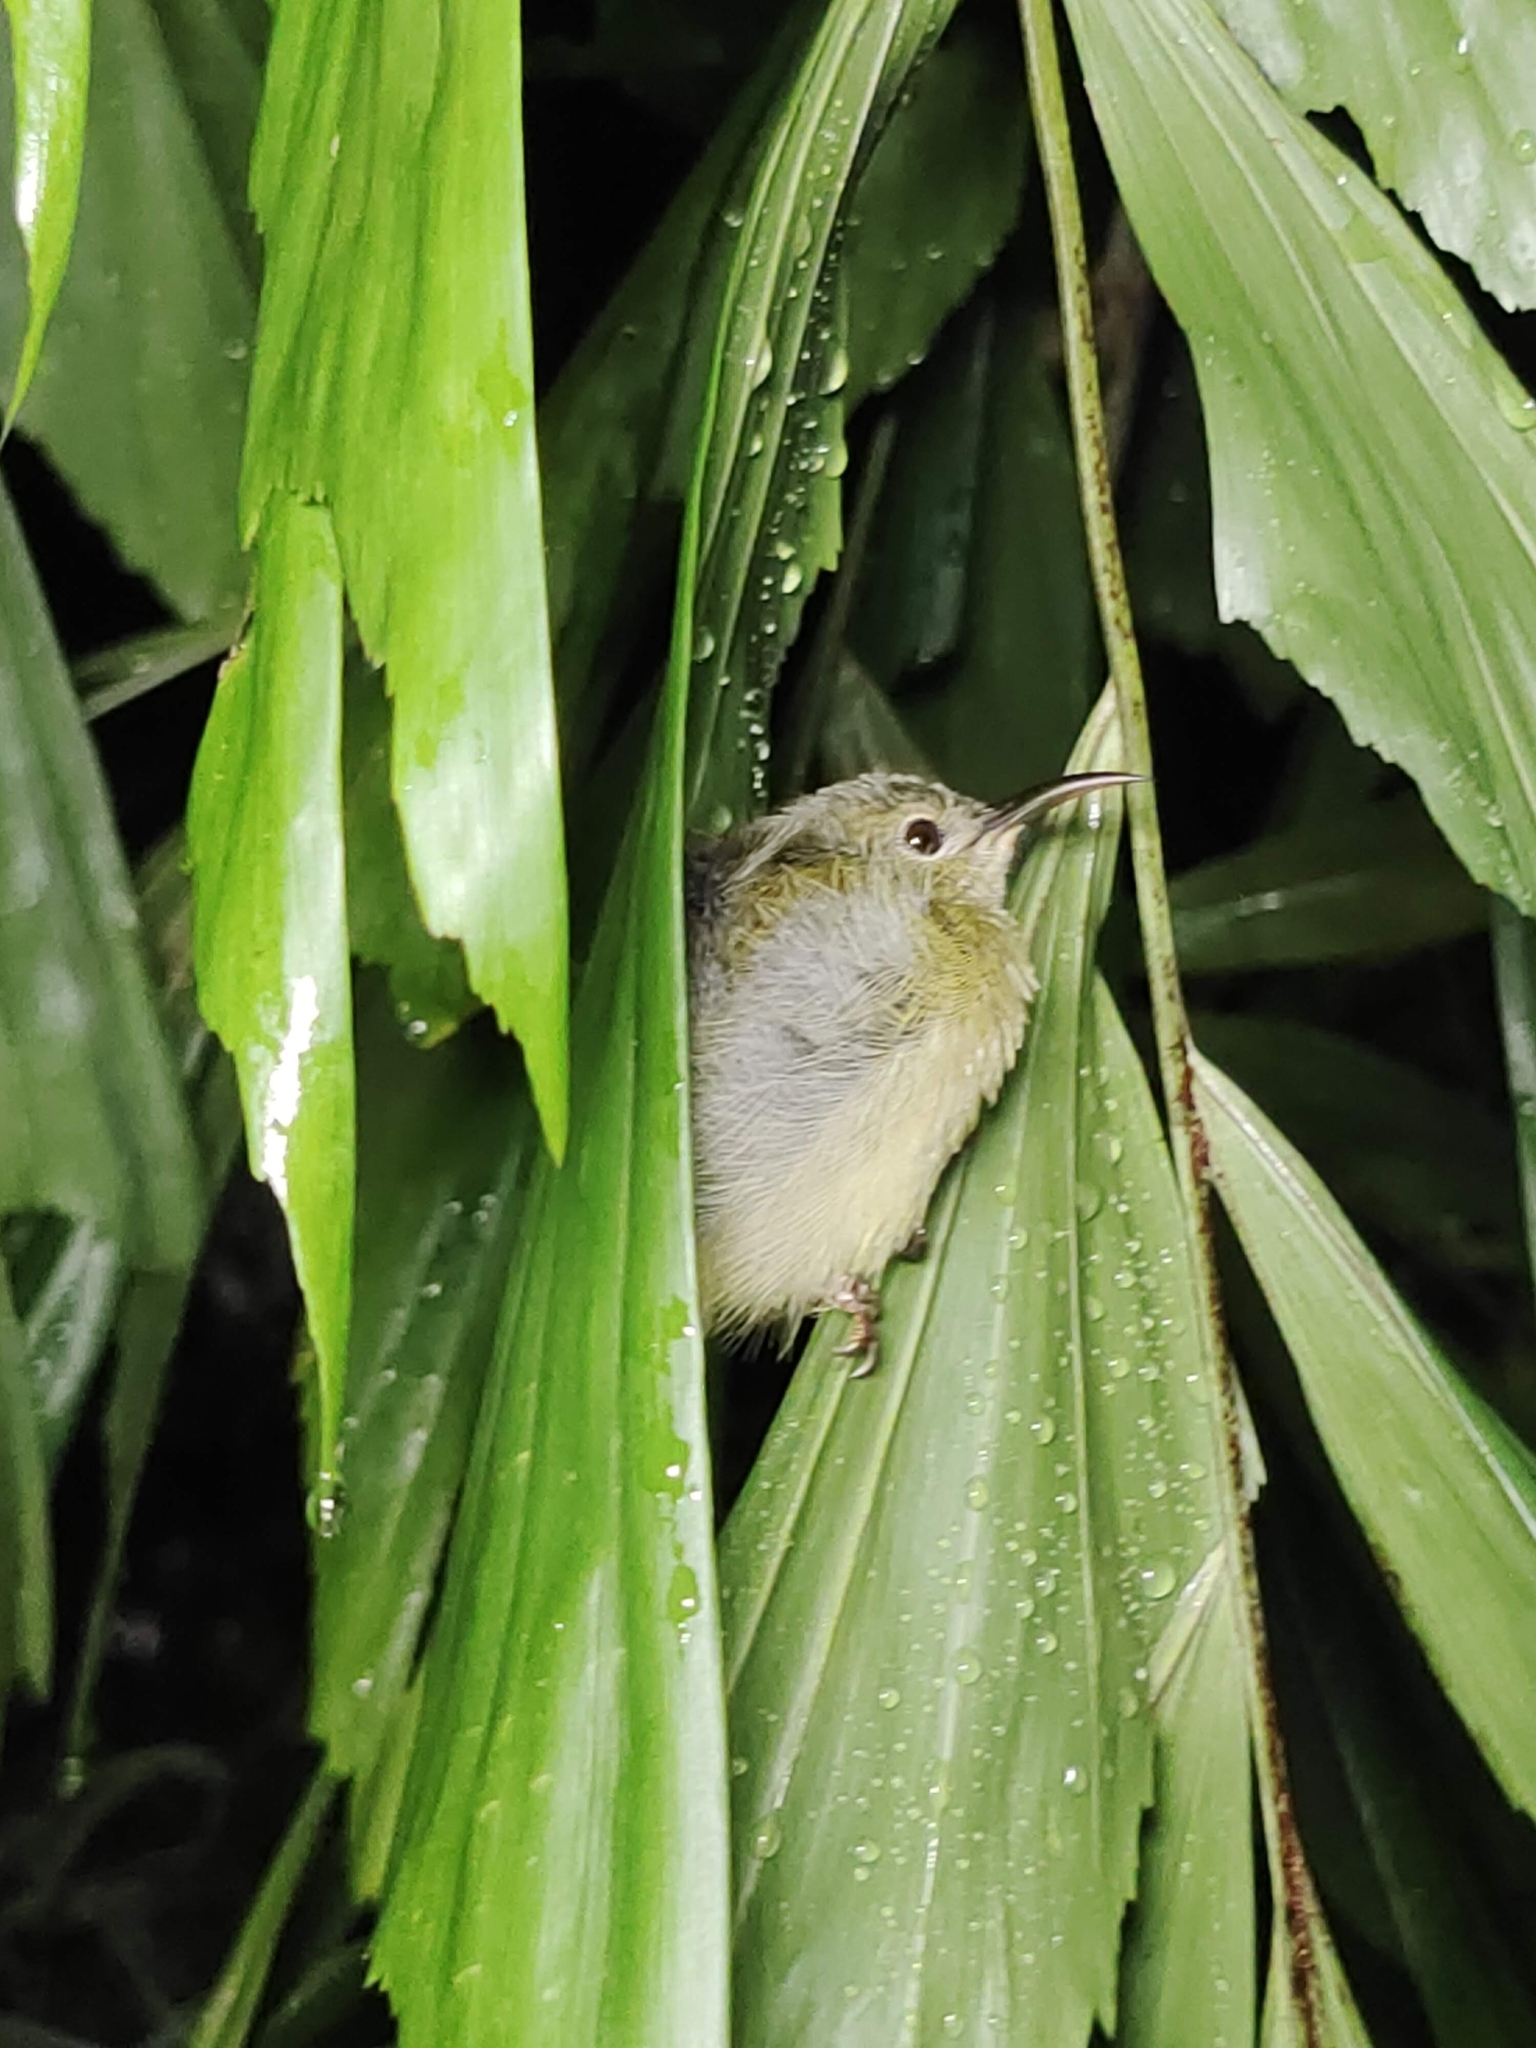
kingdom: Animalia
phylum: Chordata
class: Aves
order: Passeriformes
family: Nectariniidae
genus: Aethopyga
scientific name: Aethopyga siparaja
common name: Crimson sunbird
